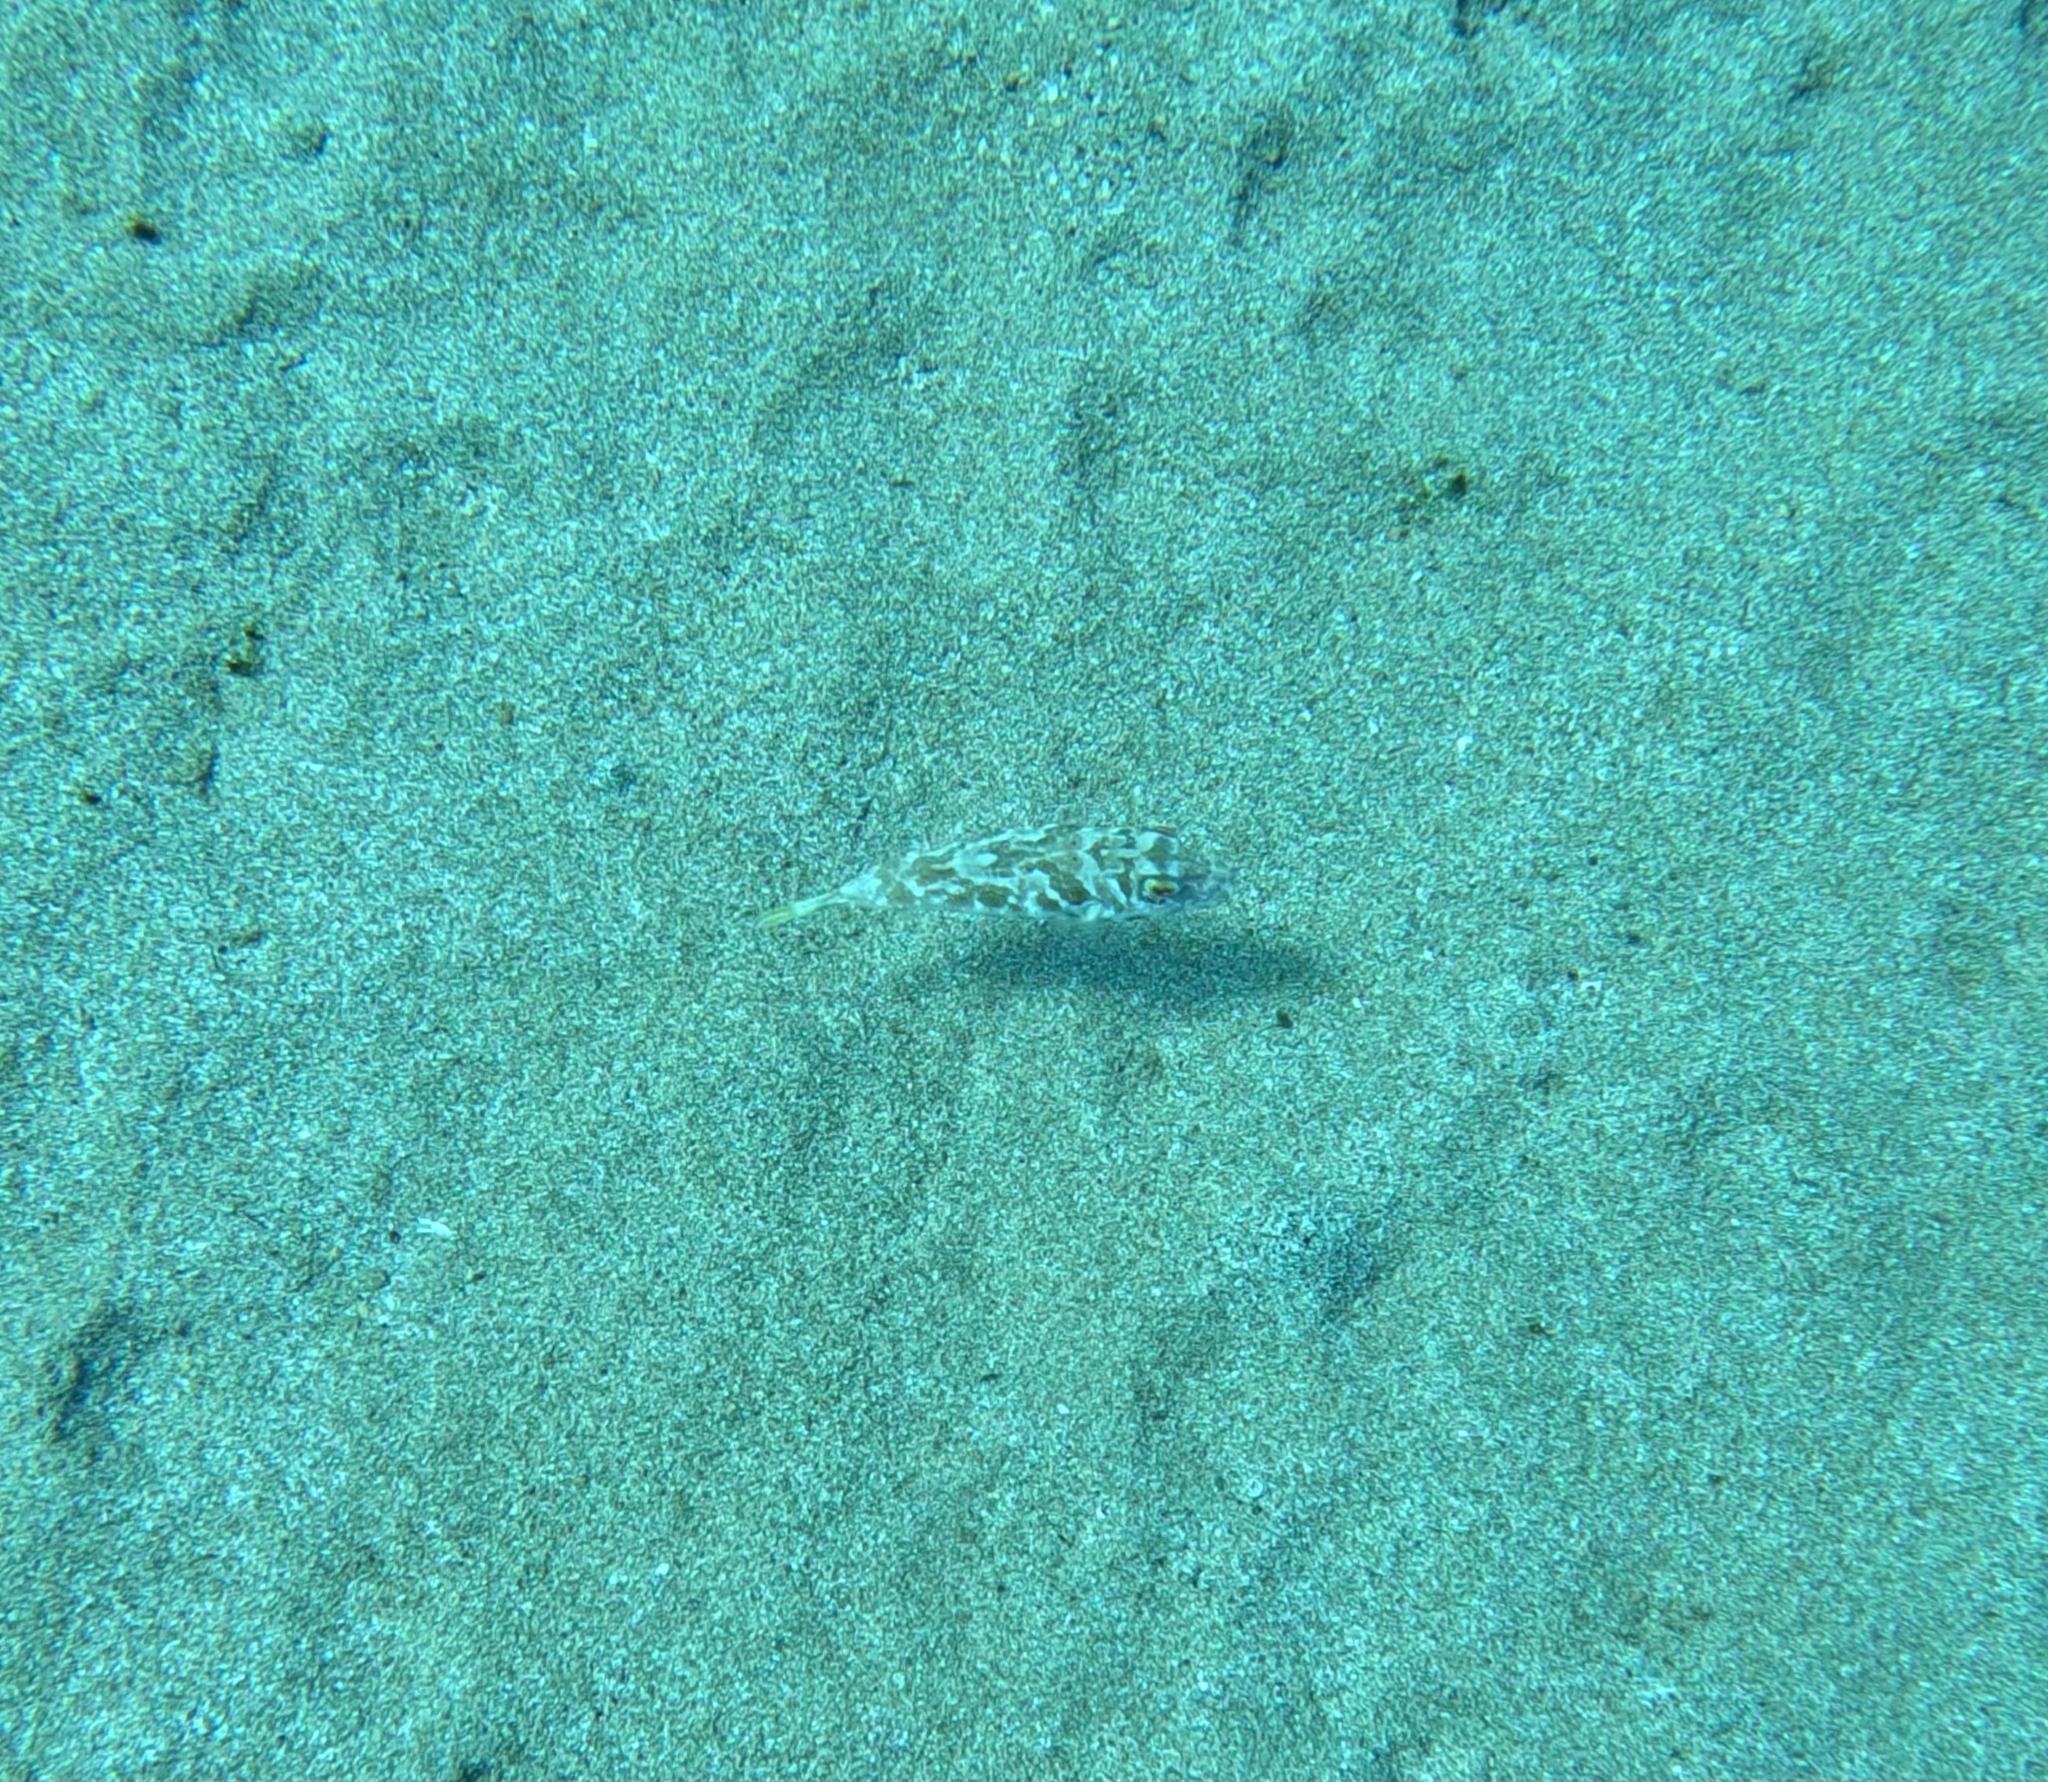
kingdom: Animalia
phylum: Chordata
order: Tetraodontiformes
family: Tetraodontidae
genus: Sphoeroides
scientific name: Sphoeroides marmoratus
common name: Guinean puffer
